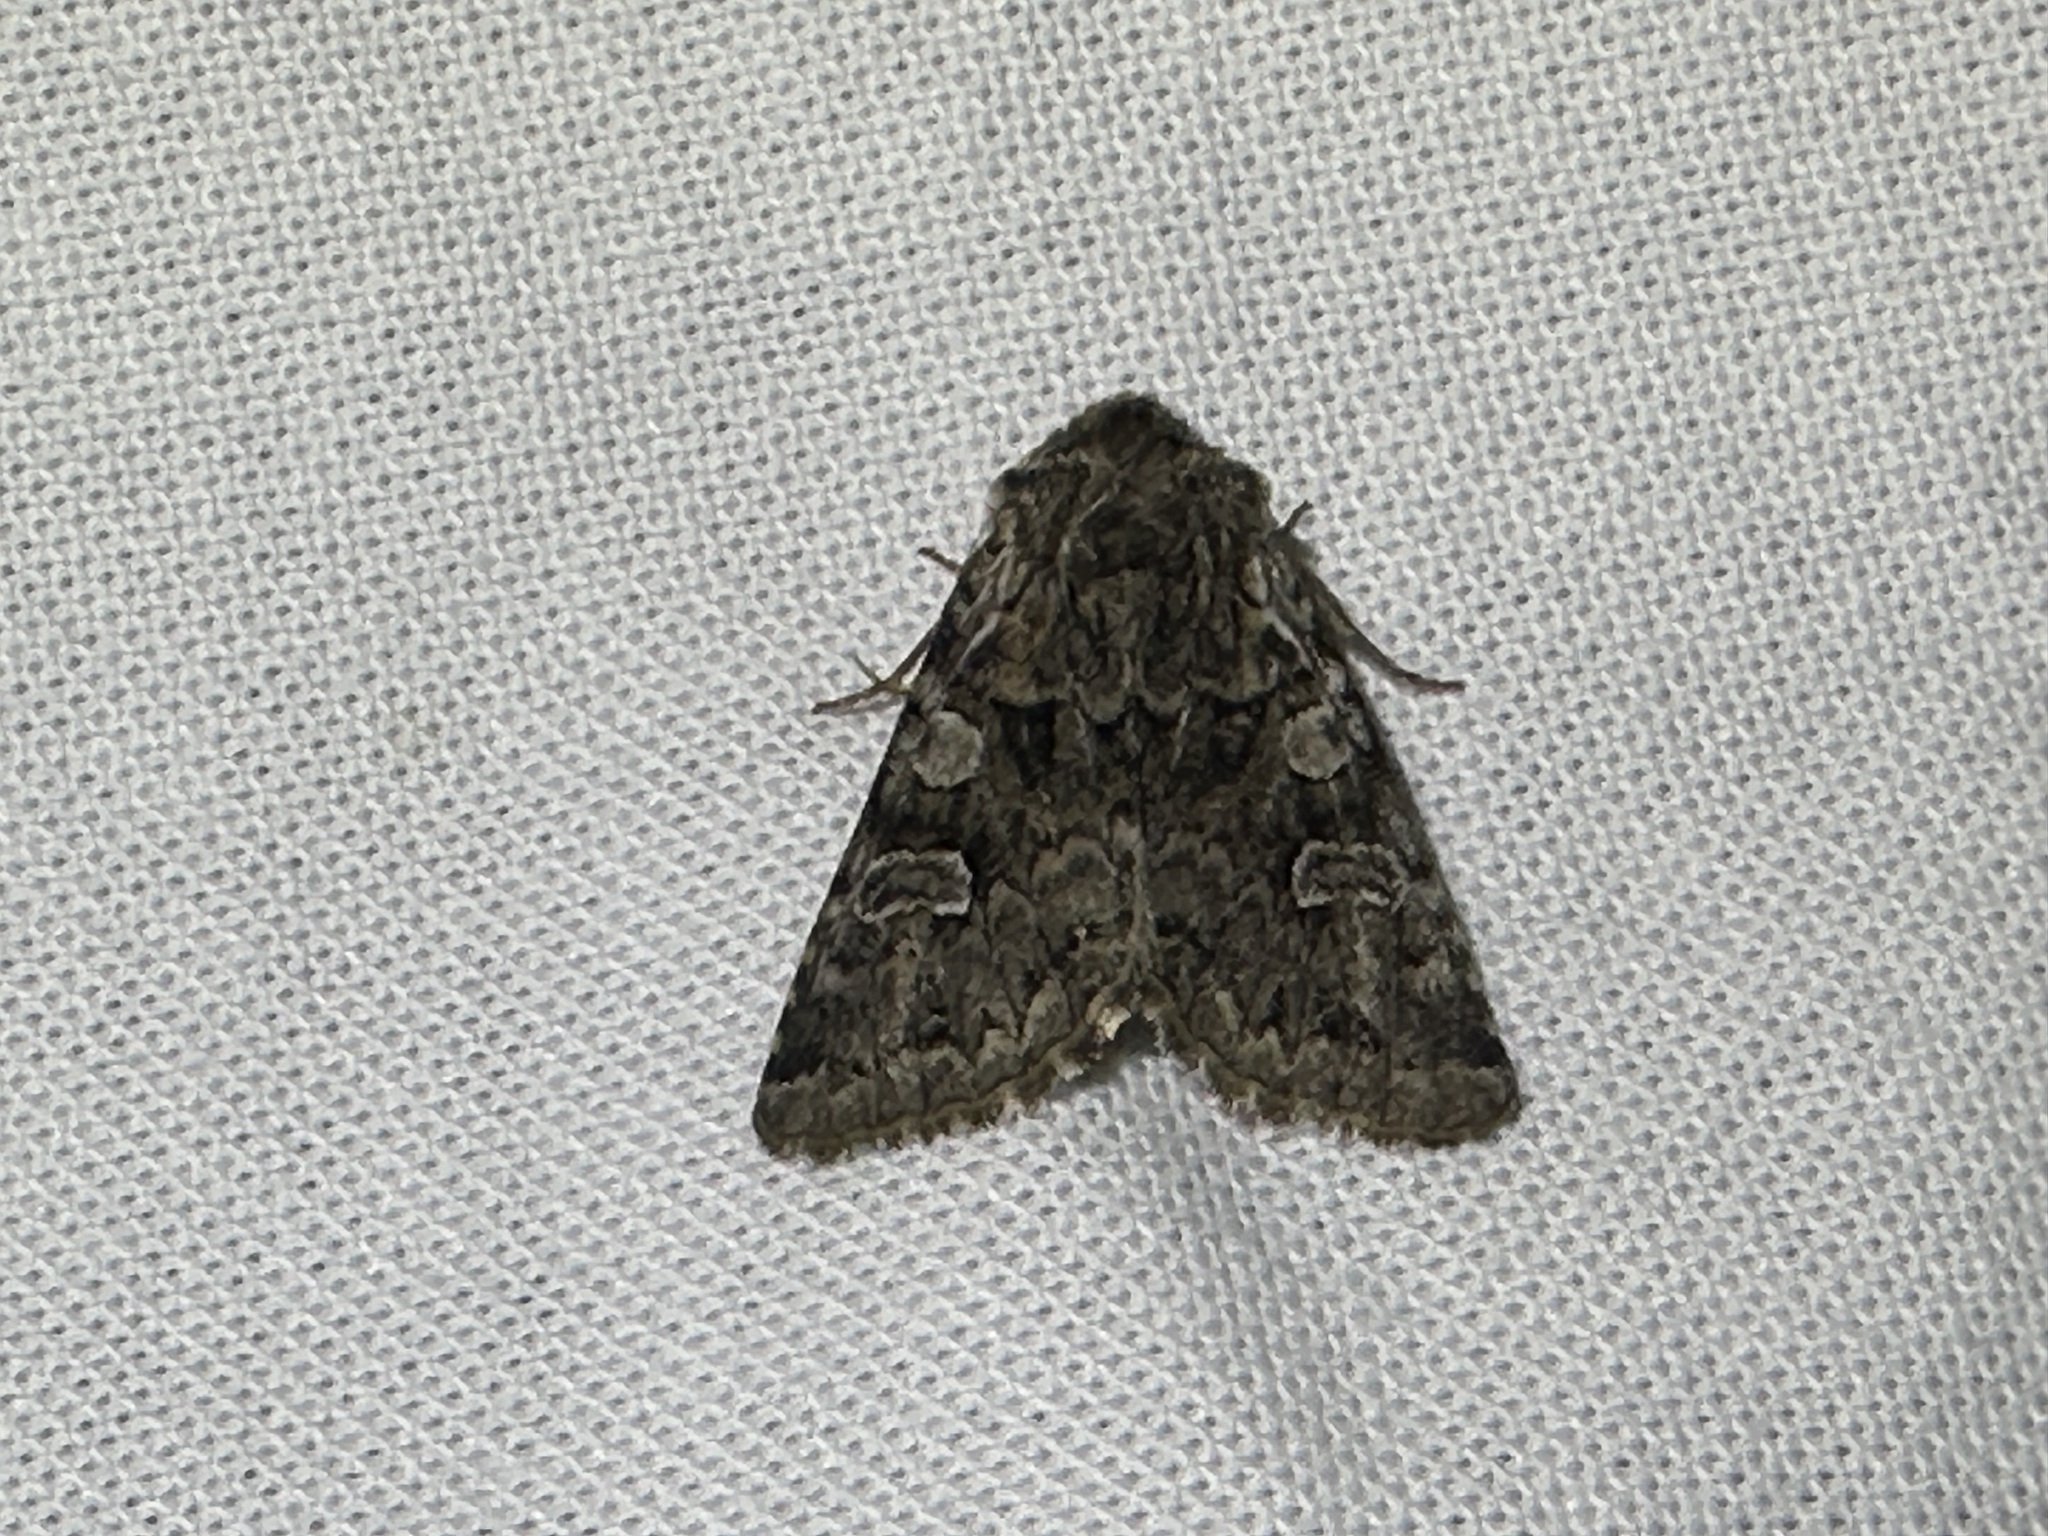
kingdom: Animalia
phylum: Arthropoda
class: Insecta
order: Lepidoptera
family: Noctuidae
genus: Pachetra
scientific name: Pachetra sagittigera
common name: Feathered ear
